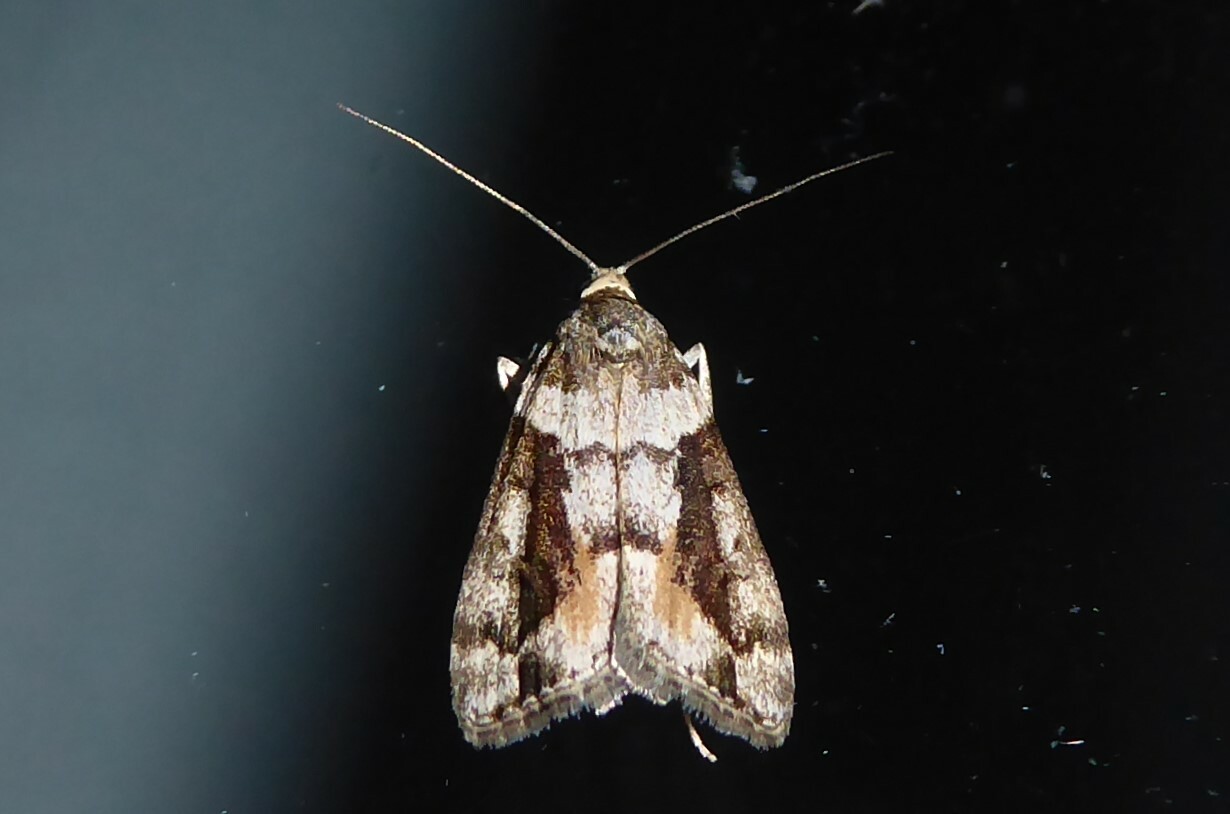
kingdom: Animalia
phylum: Arthropoda
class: Insecta
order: Lepidoptera
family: Crambidae
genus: Eudonia
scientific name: Eudonia submarginalis
